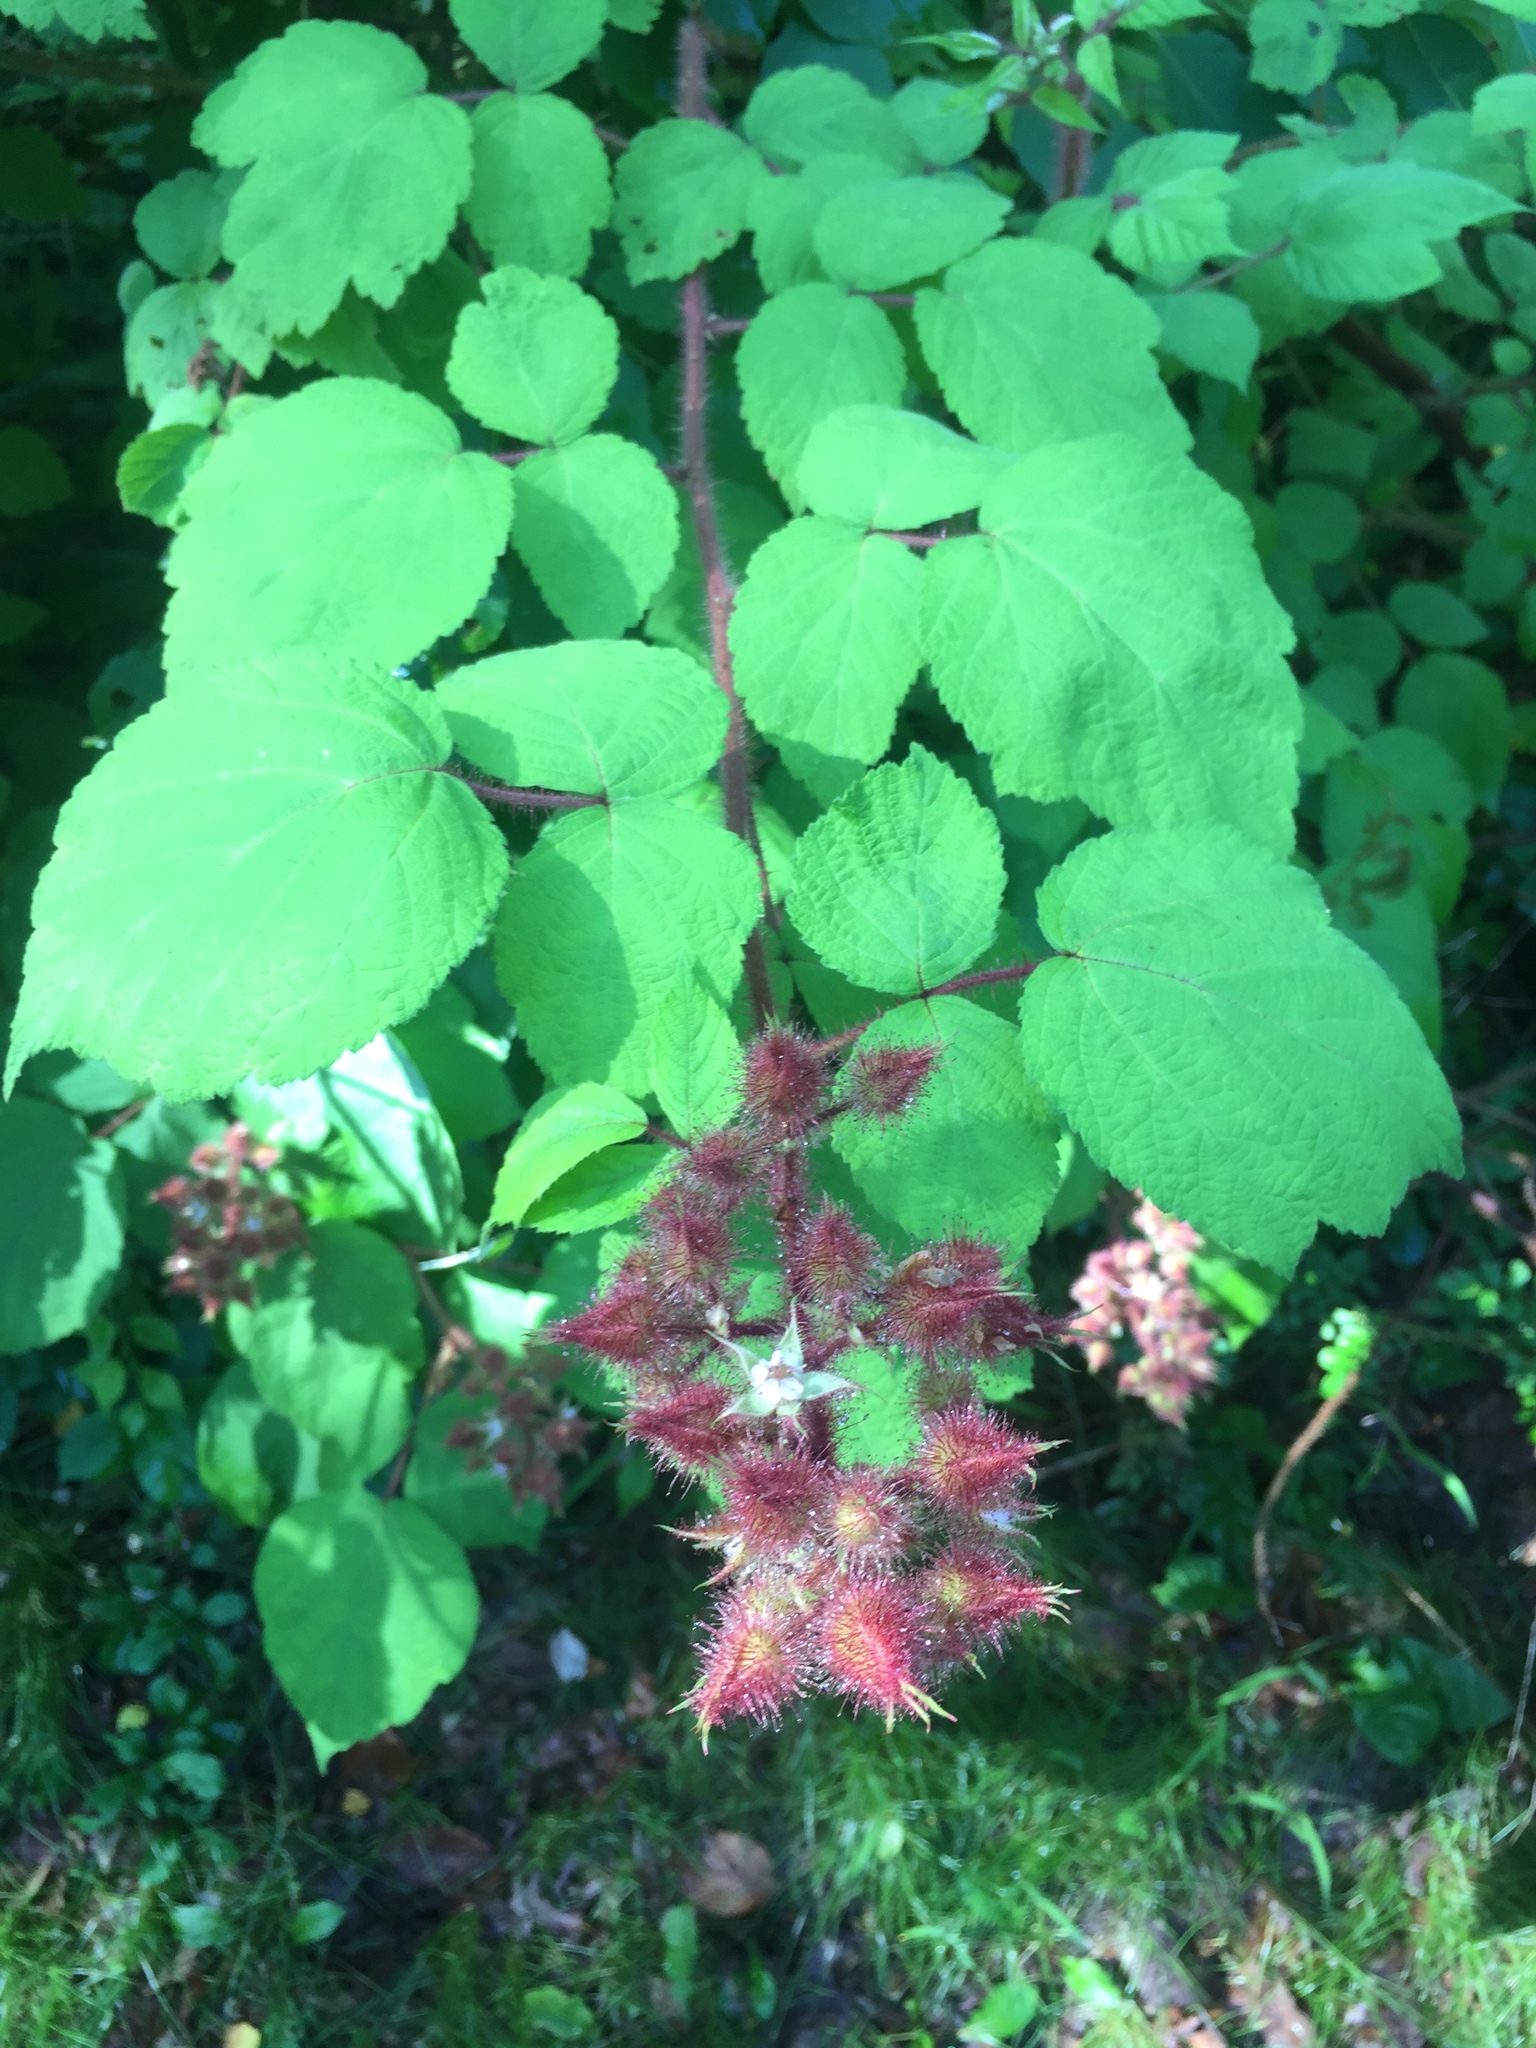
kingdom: Plantae
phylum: Tracheophyta
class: Magnoliopsida
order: Rosales
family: Rosaceae
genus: Rubus
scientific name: Rubus phoenicolasius
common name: Japanese wineberry
